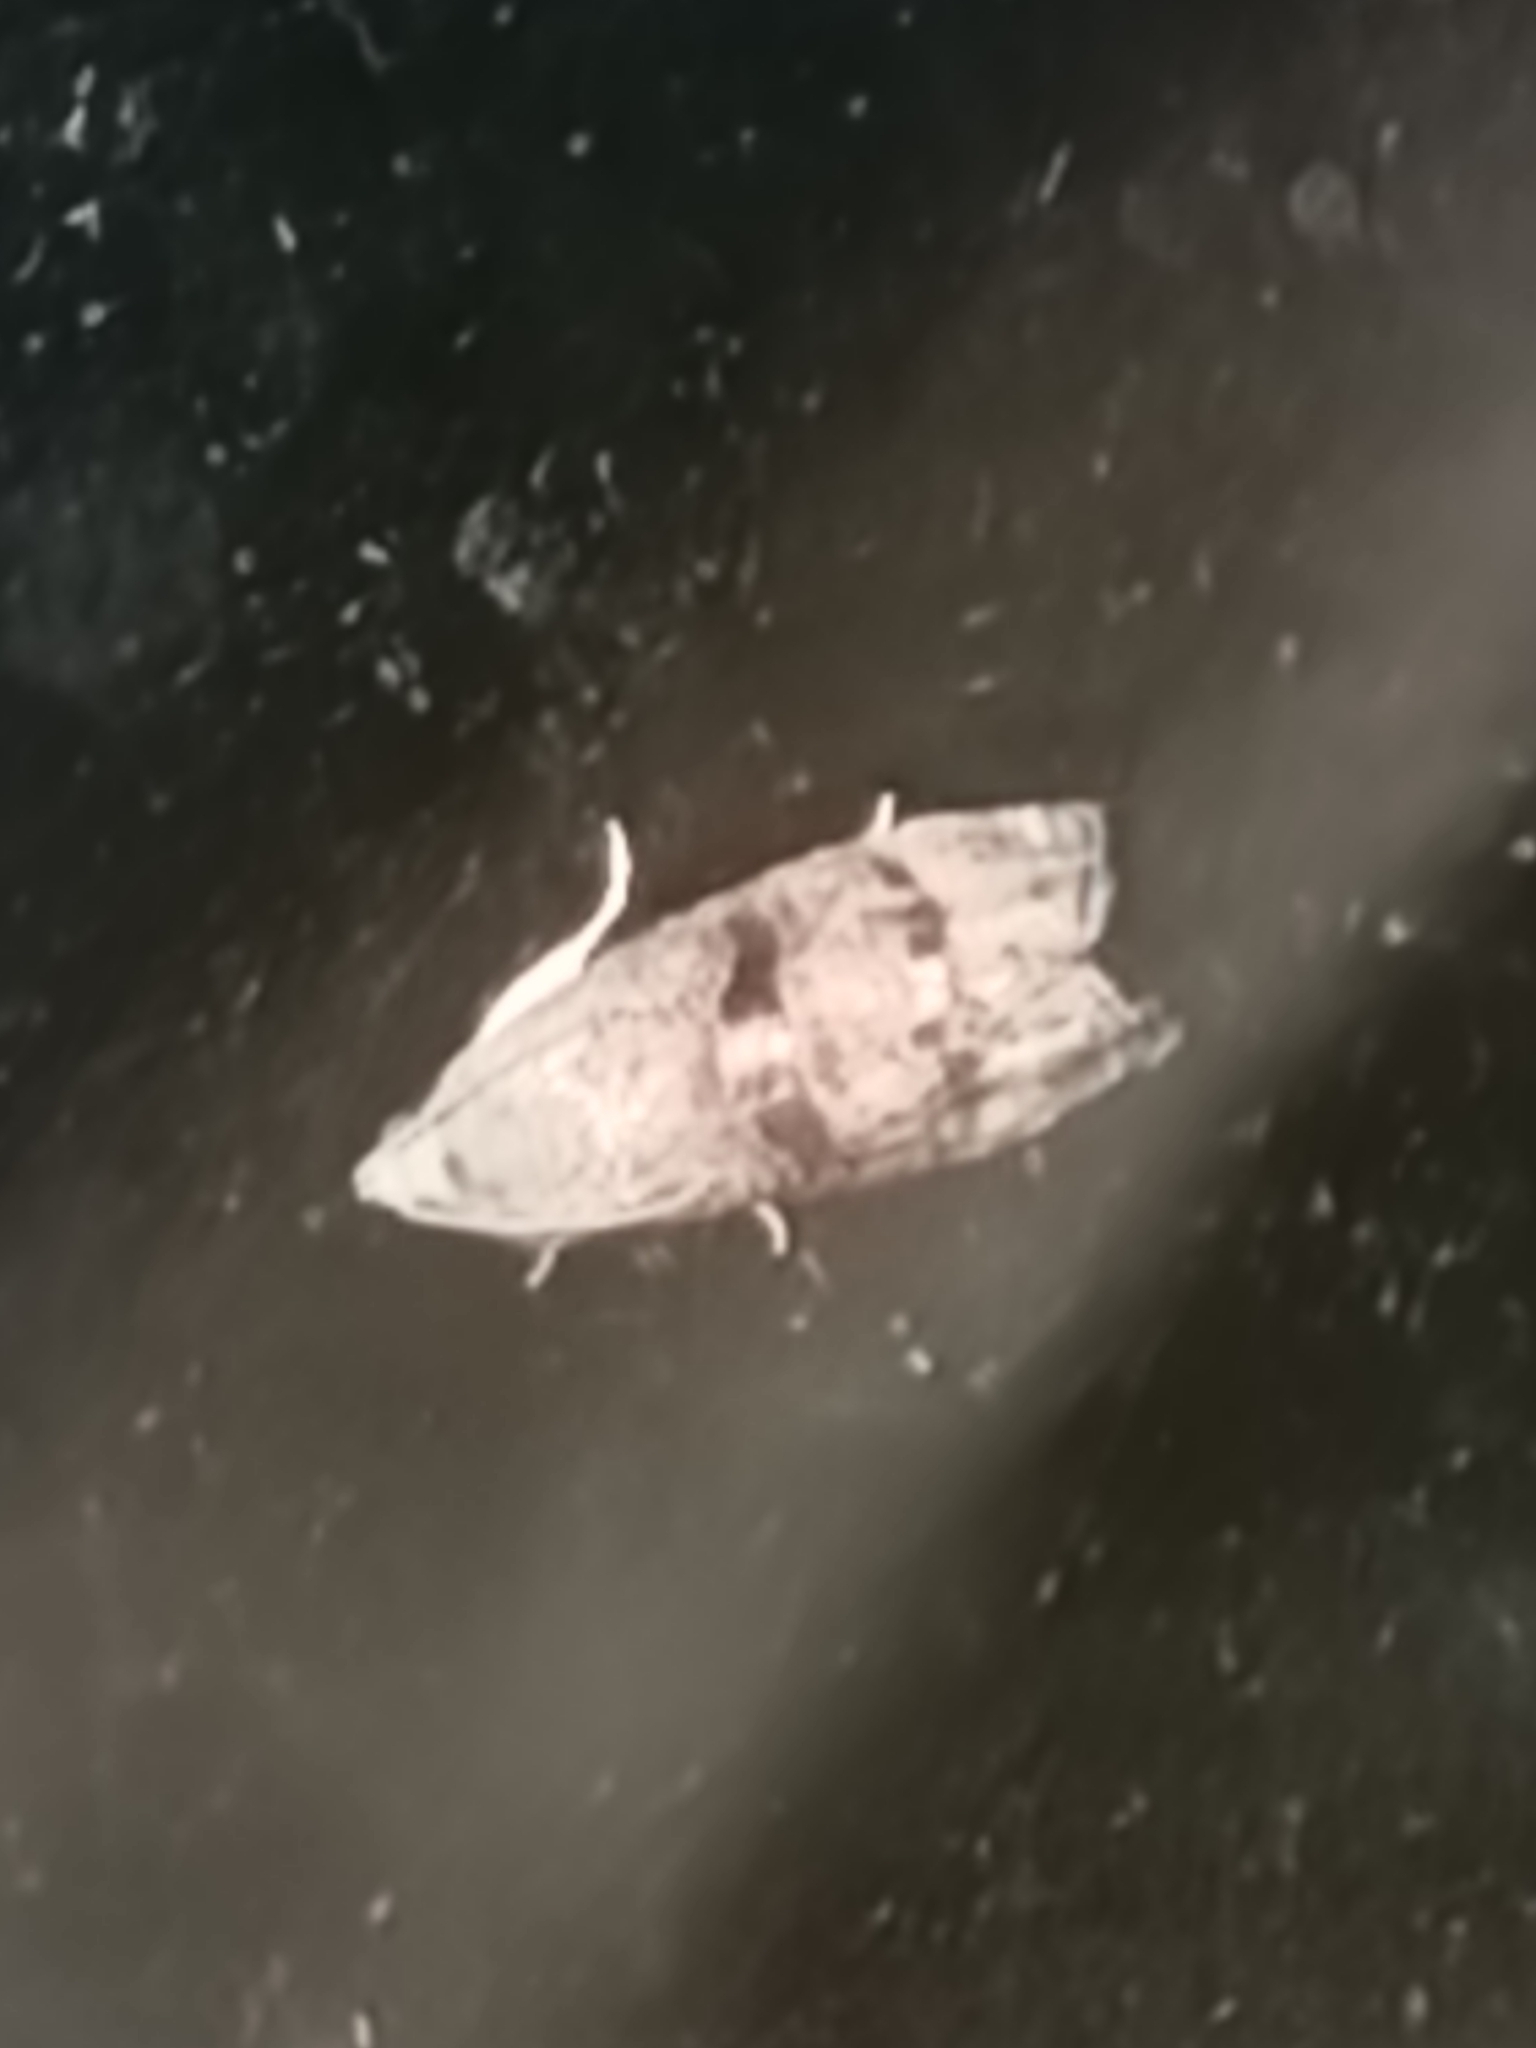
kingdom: Animalia
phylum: Arthropoda
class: Insecta
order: Lepidoptera
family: Tortricidae
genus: Cydia
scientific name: Cydia latiferreana
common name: Filbertworm moth
